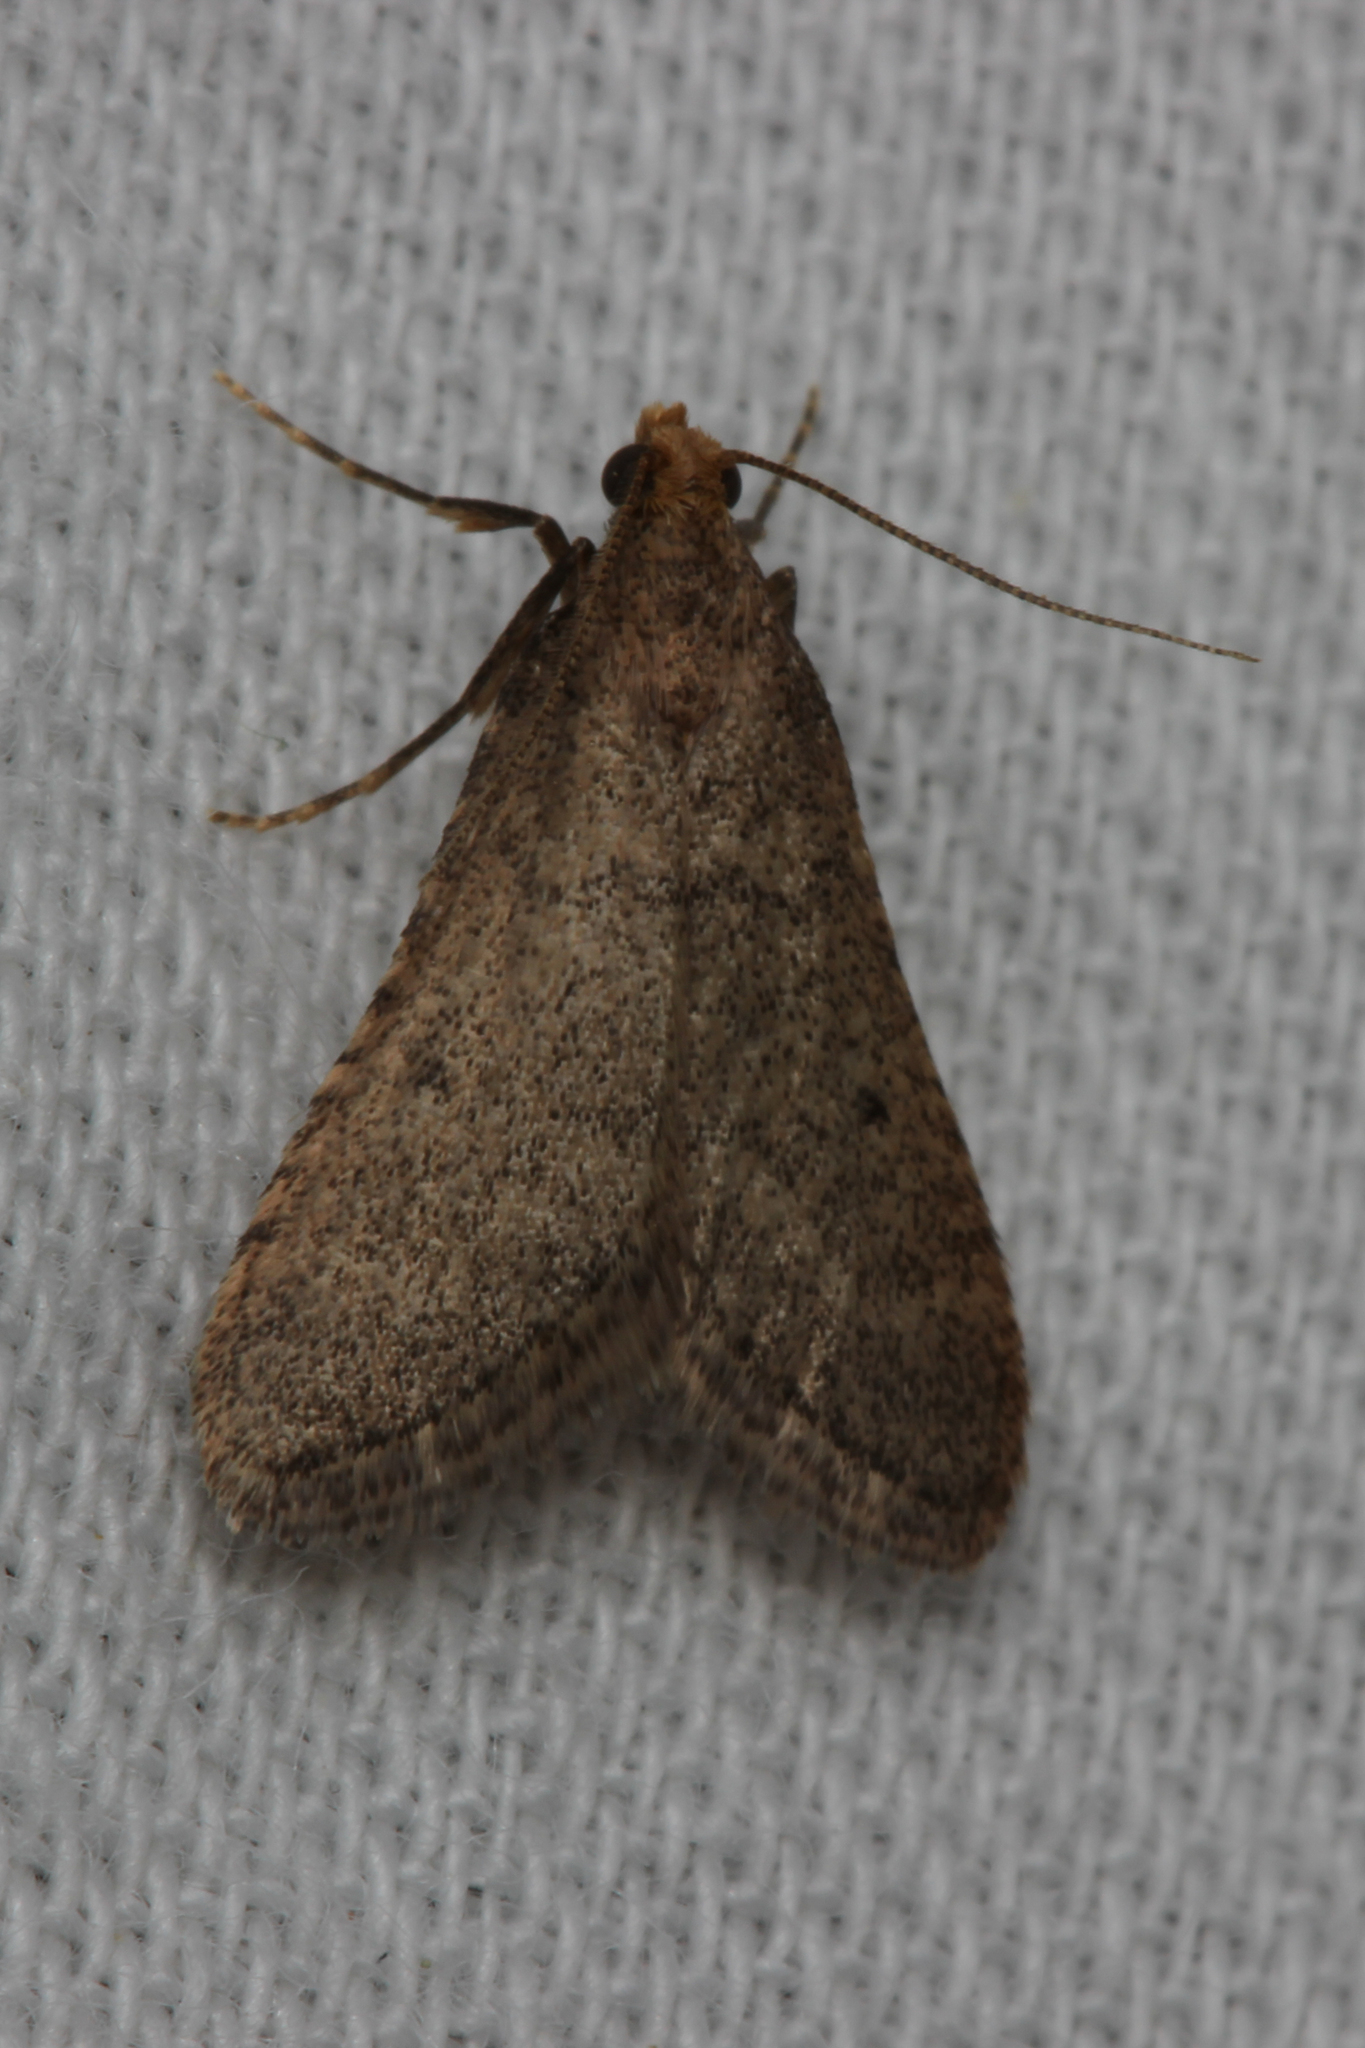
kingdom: Animalia
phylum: Arthropoda
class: Insecta
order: Lepidoptera
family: Pyralidae
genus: Bostra
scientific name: Bostra obsoletalis
